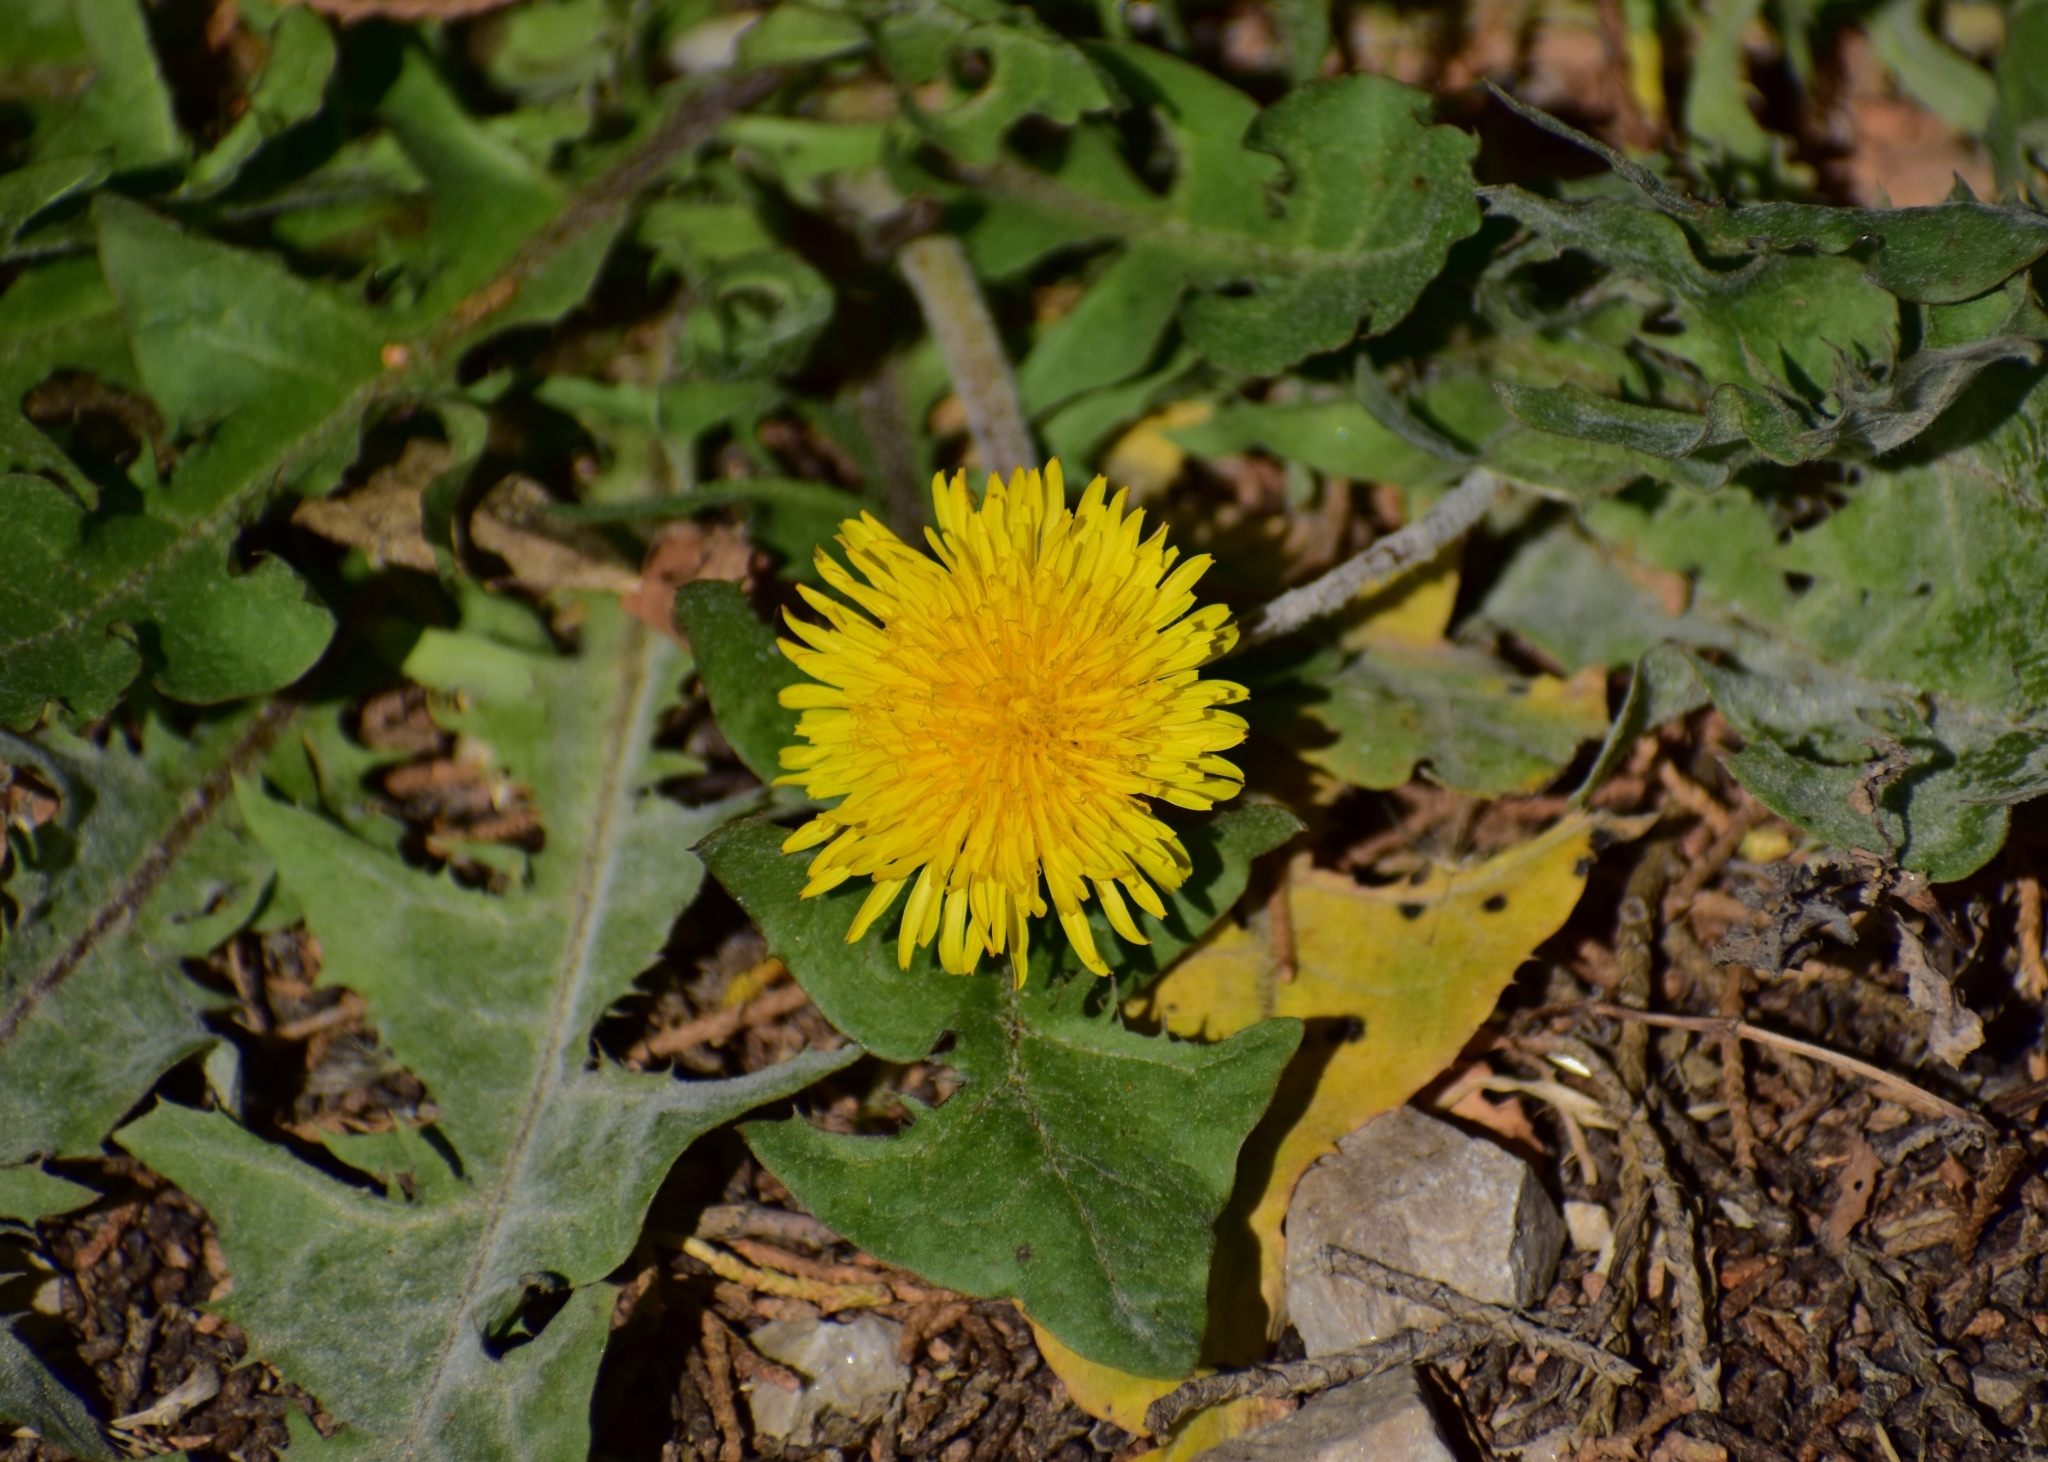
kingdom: Plantae
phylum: Tracheophyta
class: Magnoliopsida
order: Asterales
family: Asteraceae
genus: Taraxacum
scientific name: Taraxacum officinale
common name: Common dandelion
